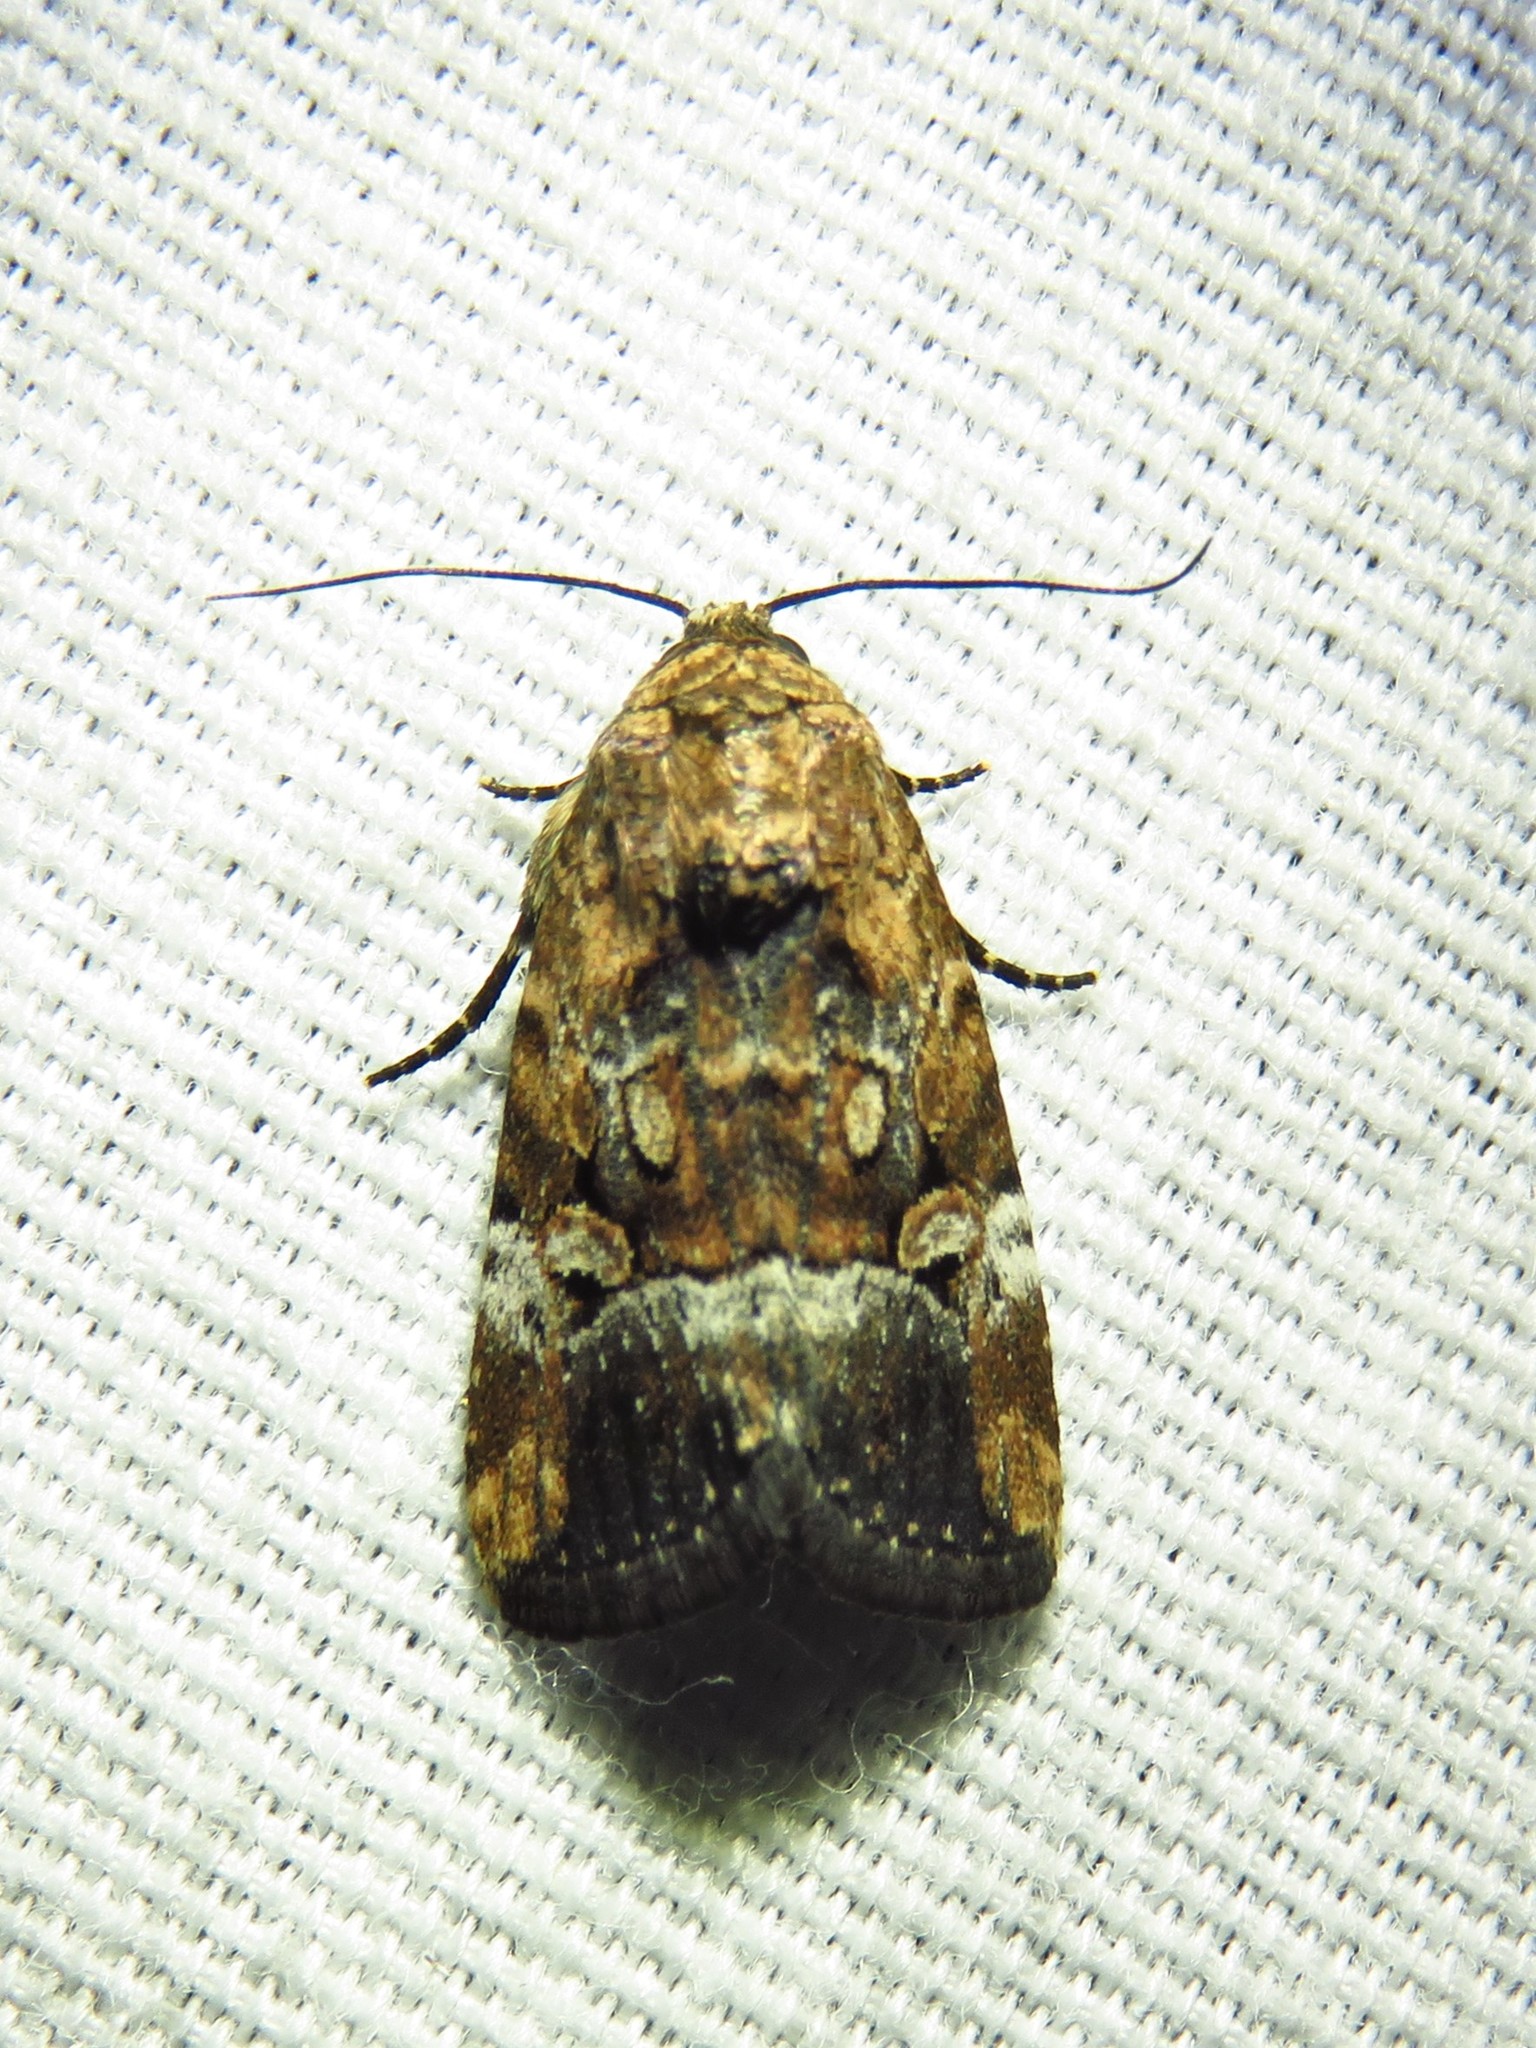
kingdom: Animalia
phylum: Arthropoda
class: Insecta
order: Lepidoptera
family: Noctuidae
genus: Elaphria
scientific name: Elaphria chalcedonia
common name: Chalcedony midget
